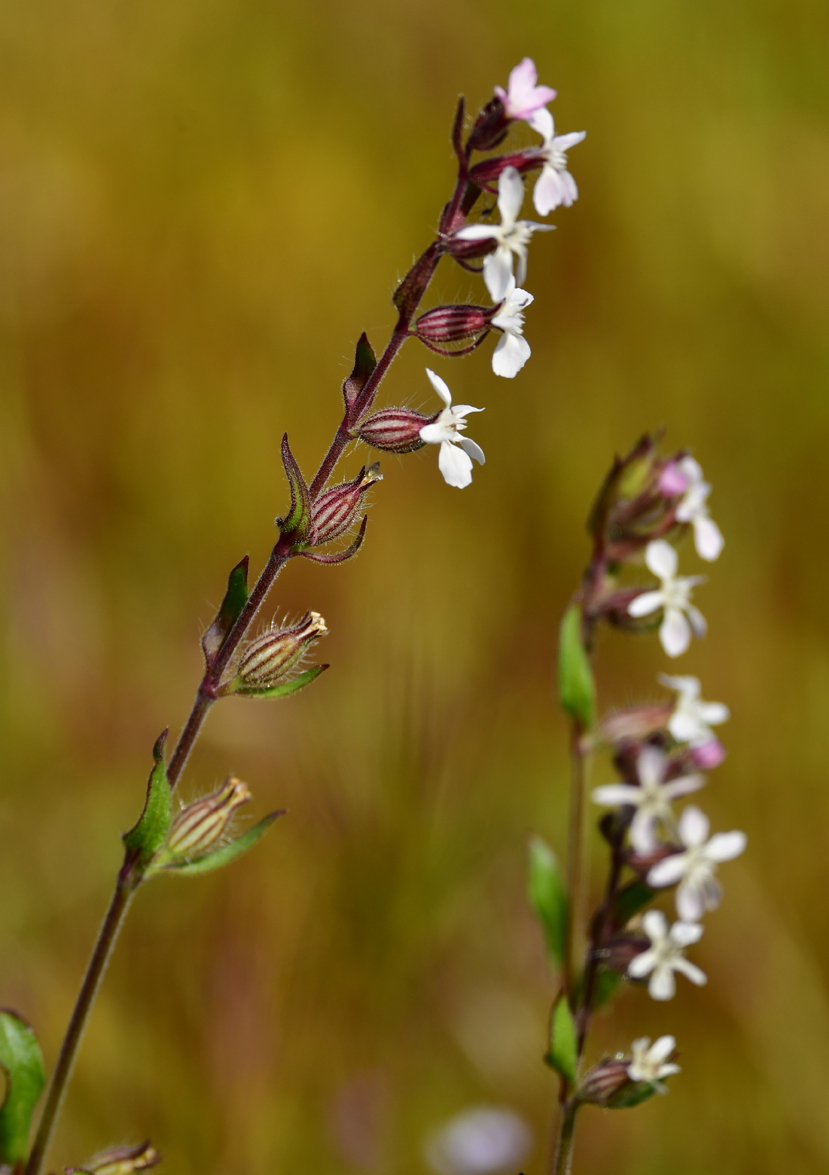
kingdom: Plantae
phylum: Tracheophyta
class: Magnoliopsida
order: Caryophyllales
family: Caryophyllaceae
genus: Silene
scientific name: Silene gallica
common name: Small-flowered catchfly
